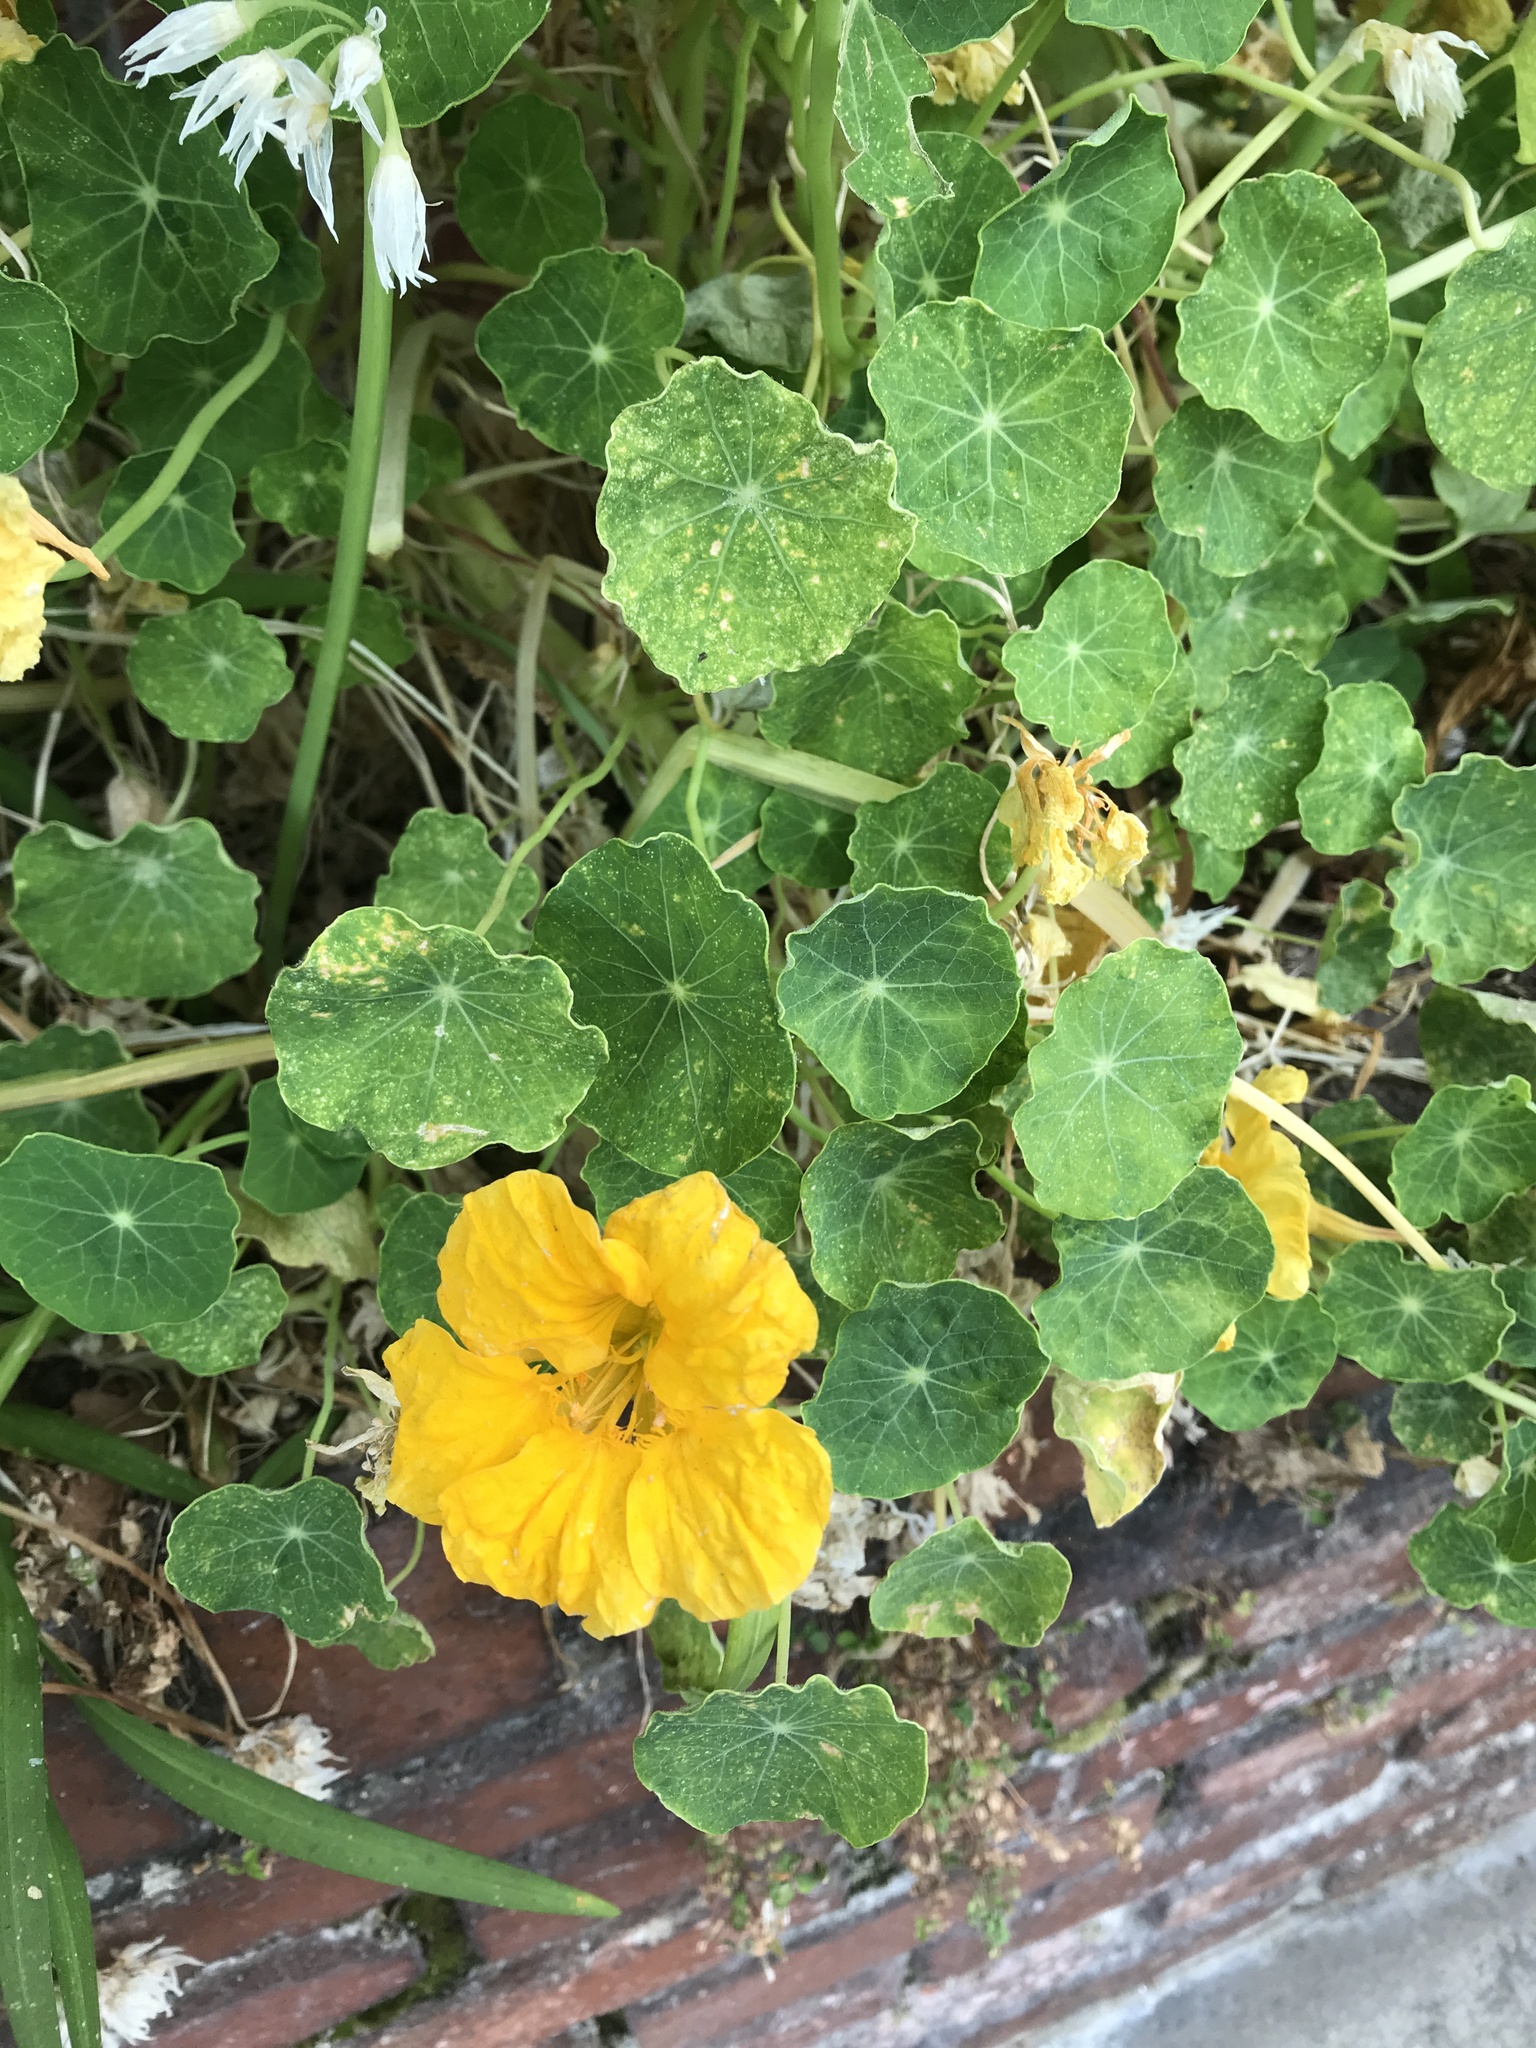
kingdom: Plantae
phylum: Tracheophyta
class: Magnoliopsida
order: Brassicales
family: Tropaeolaceae
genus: Tropaeolum
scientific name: Tropaeolum majus
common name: Nasturtium
